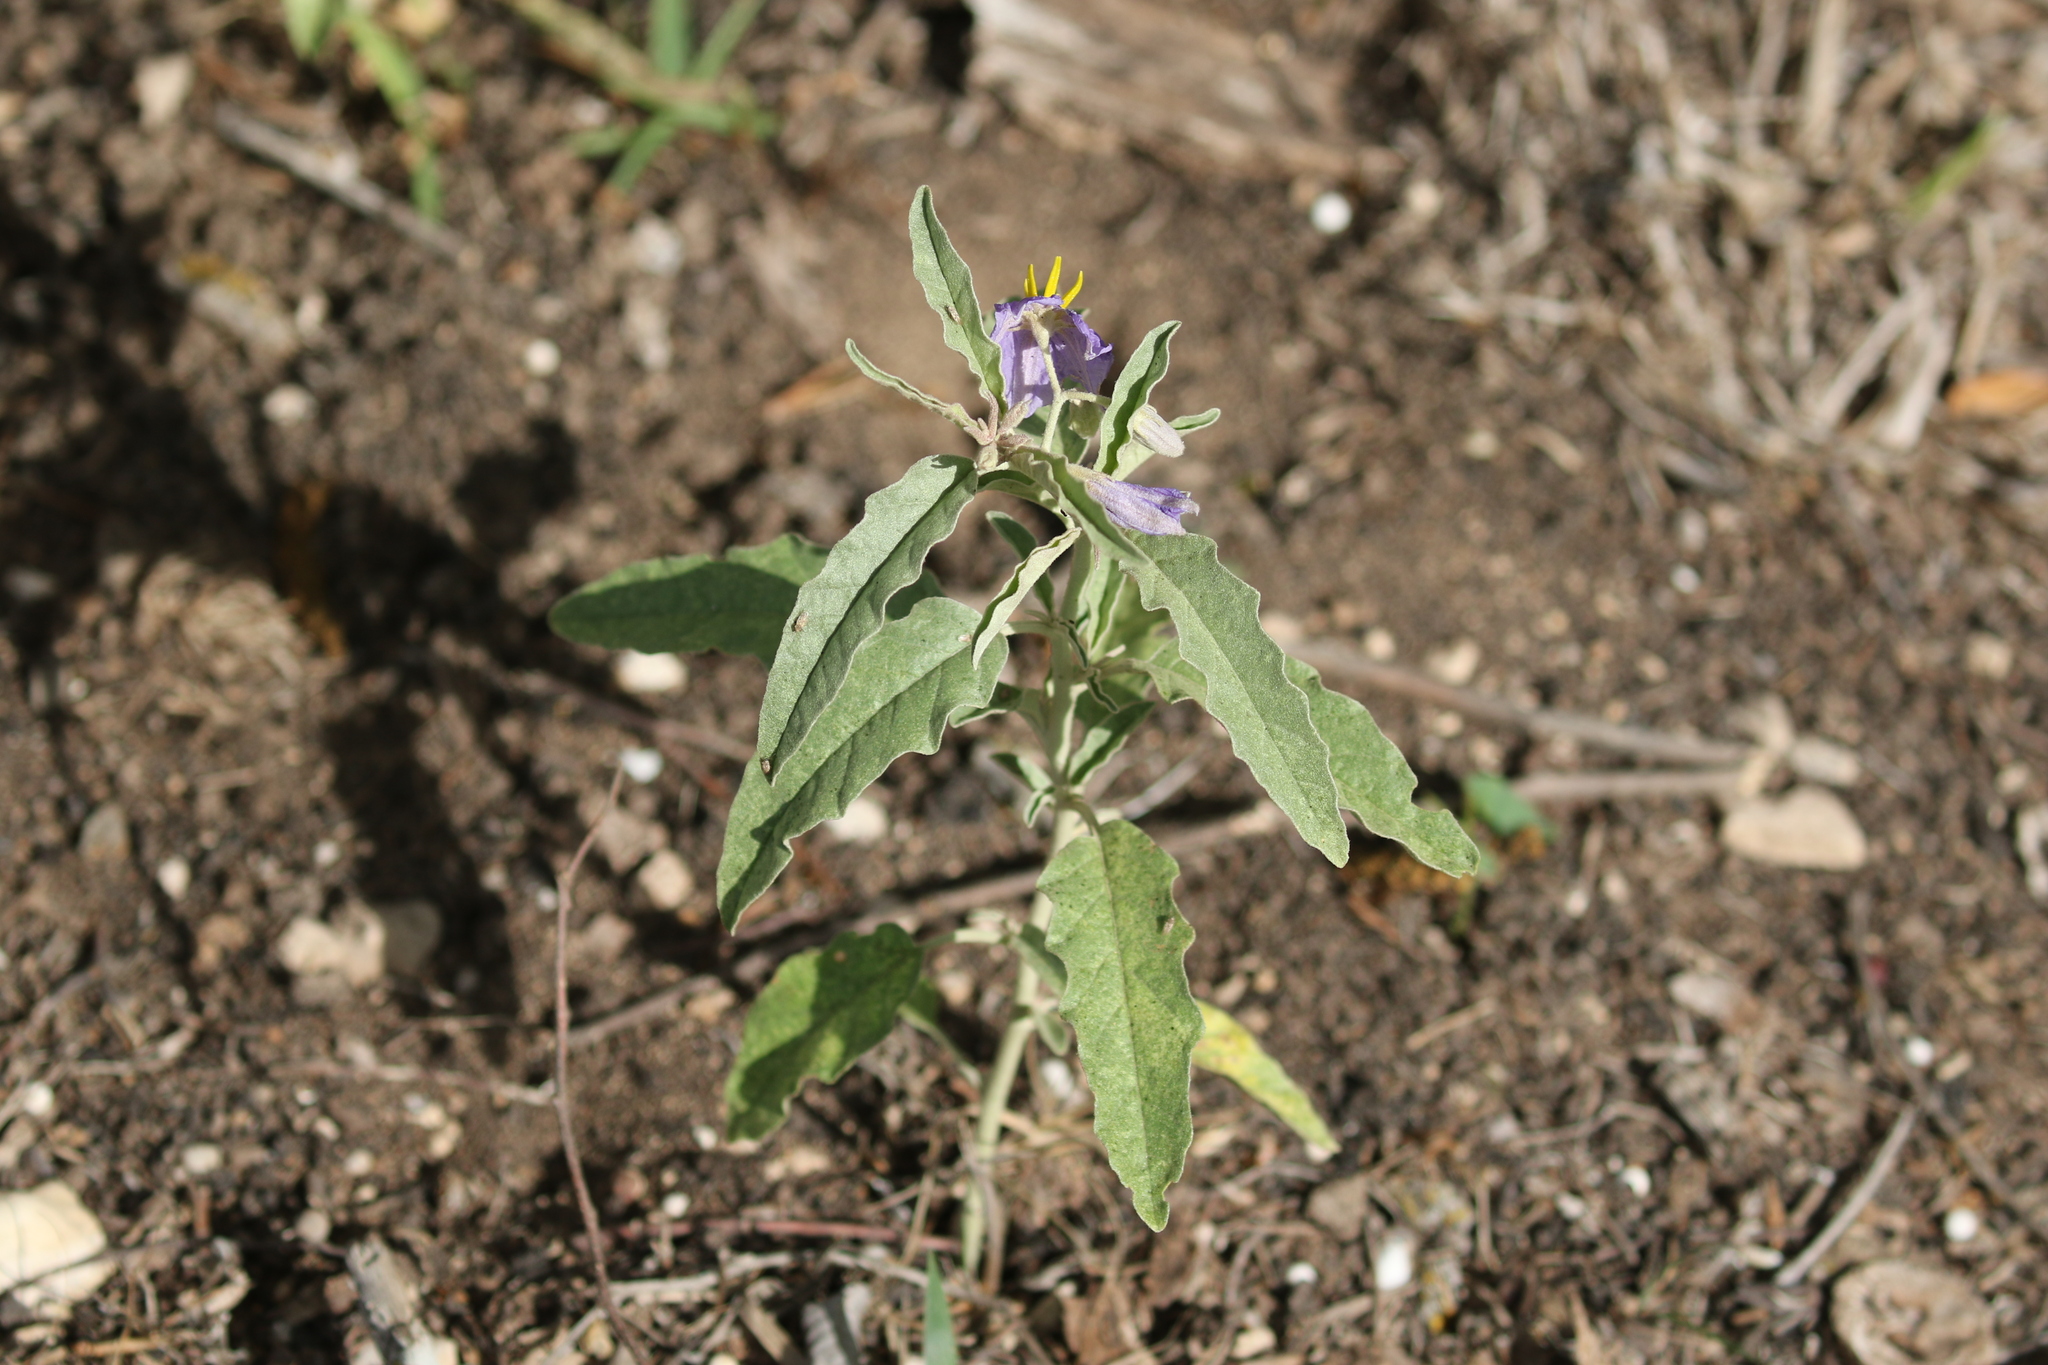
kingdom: Plantae
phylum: Tracheophyta
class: Magnoliopsida
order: Solanales
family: Solanaceae
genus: Solanum
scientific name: Solanum elaeagnifolium
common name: Silverleaf nightshade
